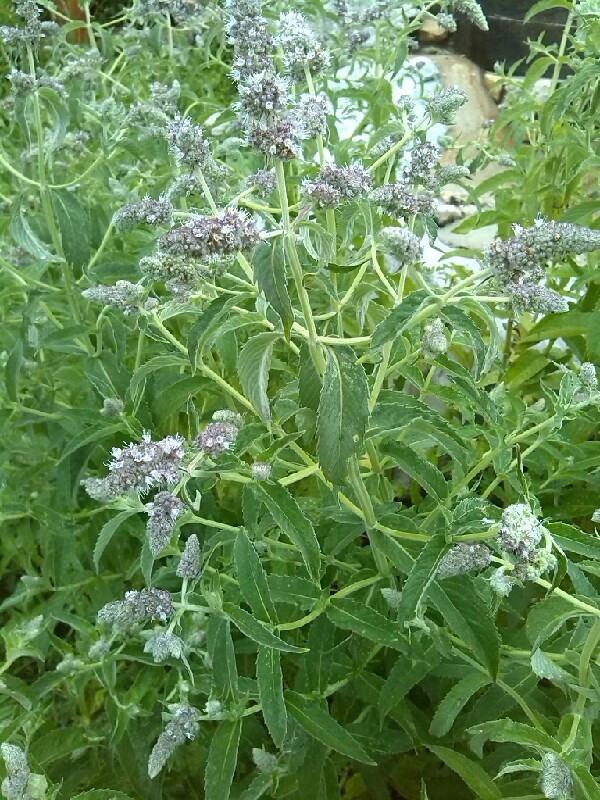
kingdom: Plantae
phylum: Tracheophyta
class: Magnoliopsida
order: Lamiales
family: Lamiaceae
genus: Mentha
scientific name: Mentha longifolia
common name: Horse mint
